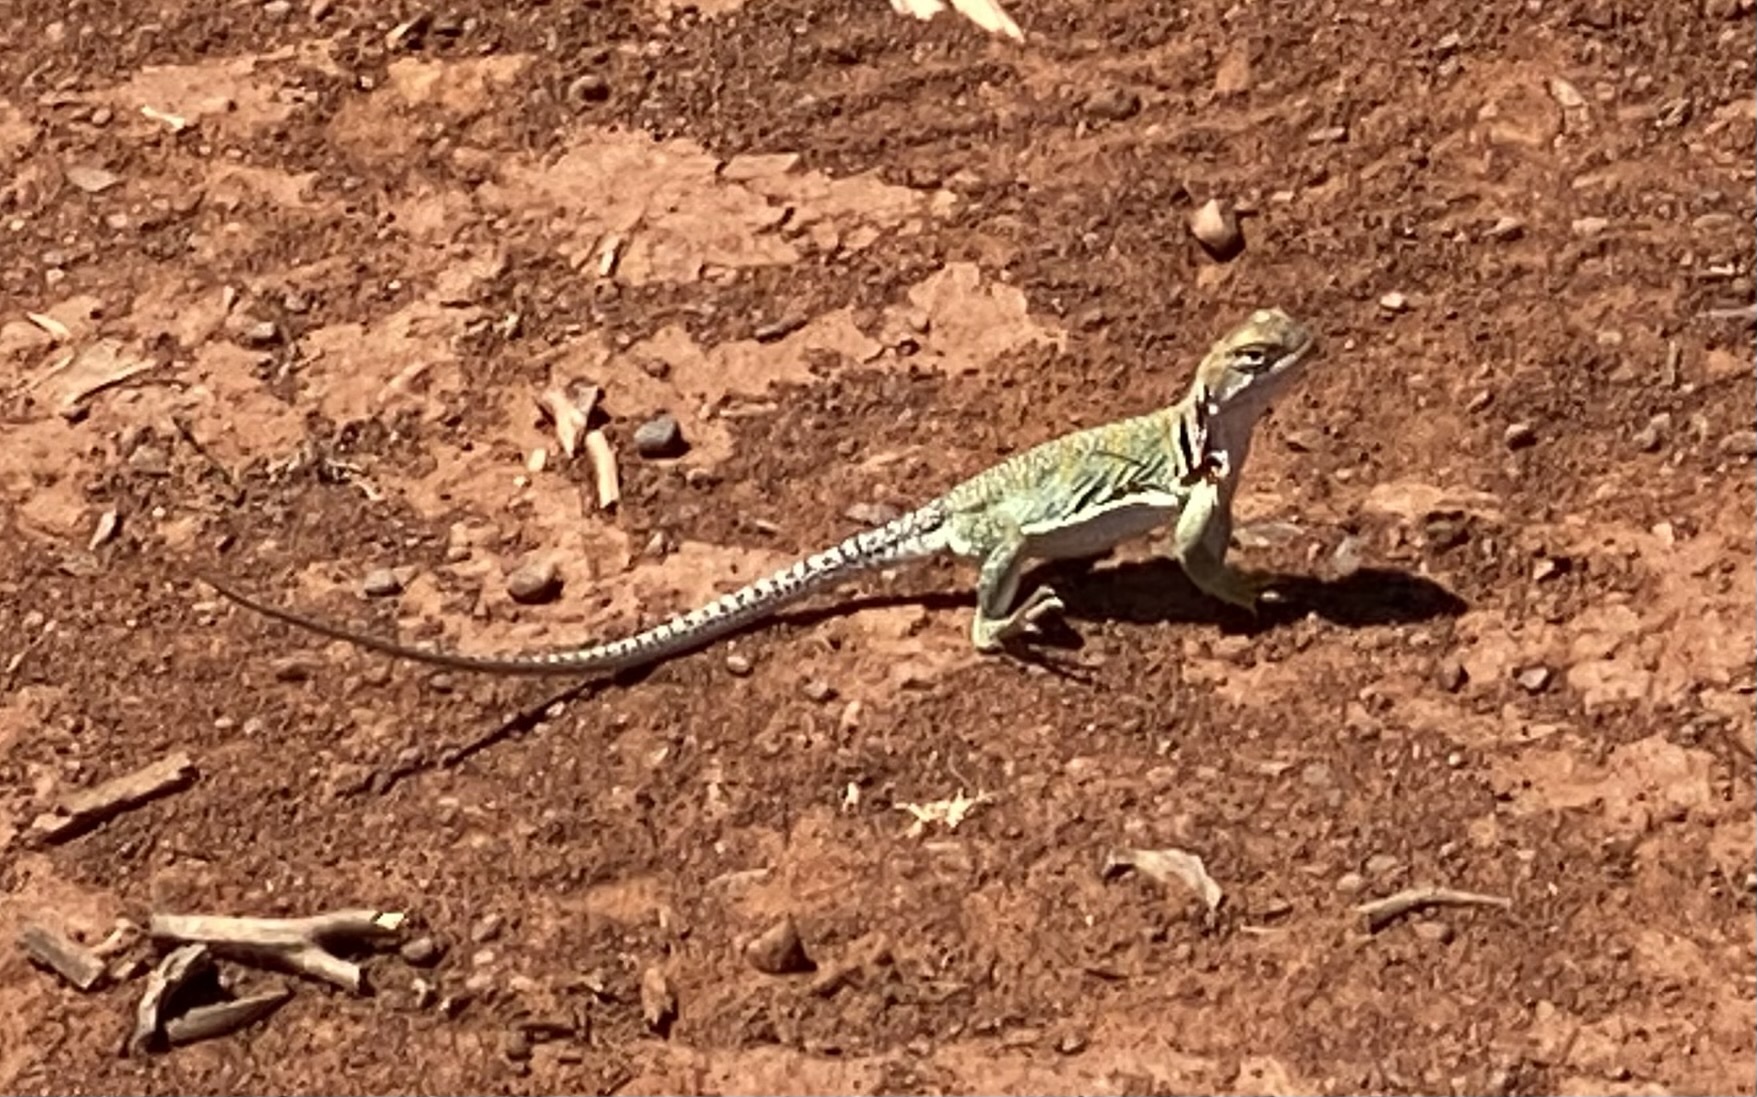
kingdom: Animalia
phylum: Chordata
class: Squamata
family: Crotaphytidae
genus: Crotaphytus
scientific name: Crotaphytus collaris
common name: Collared lizard
